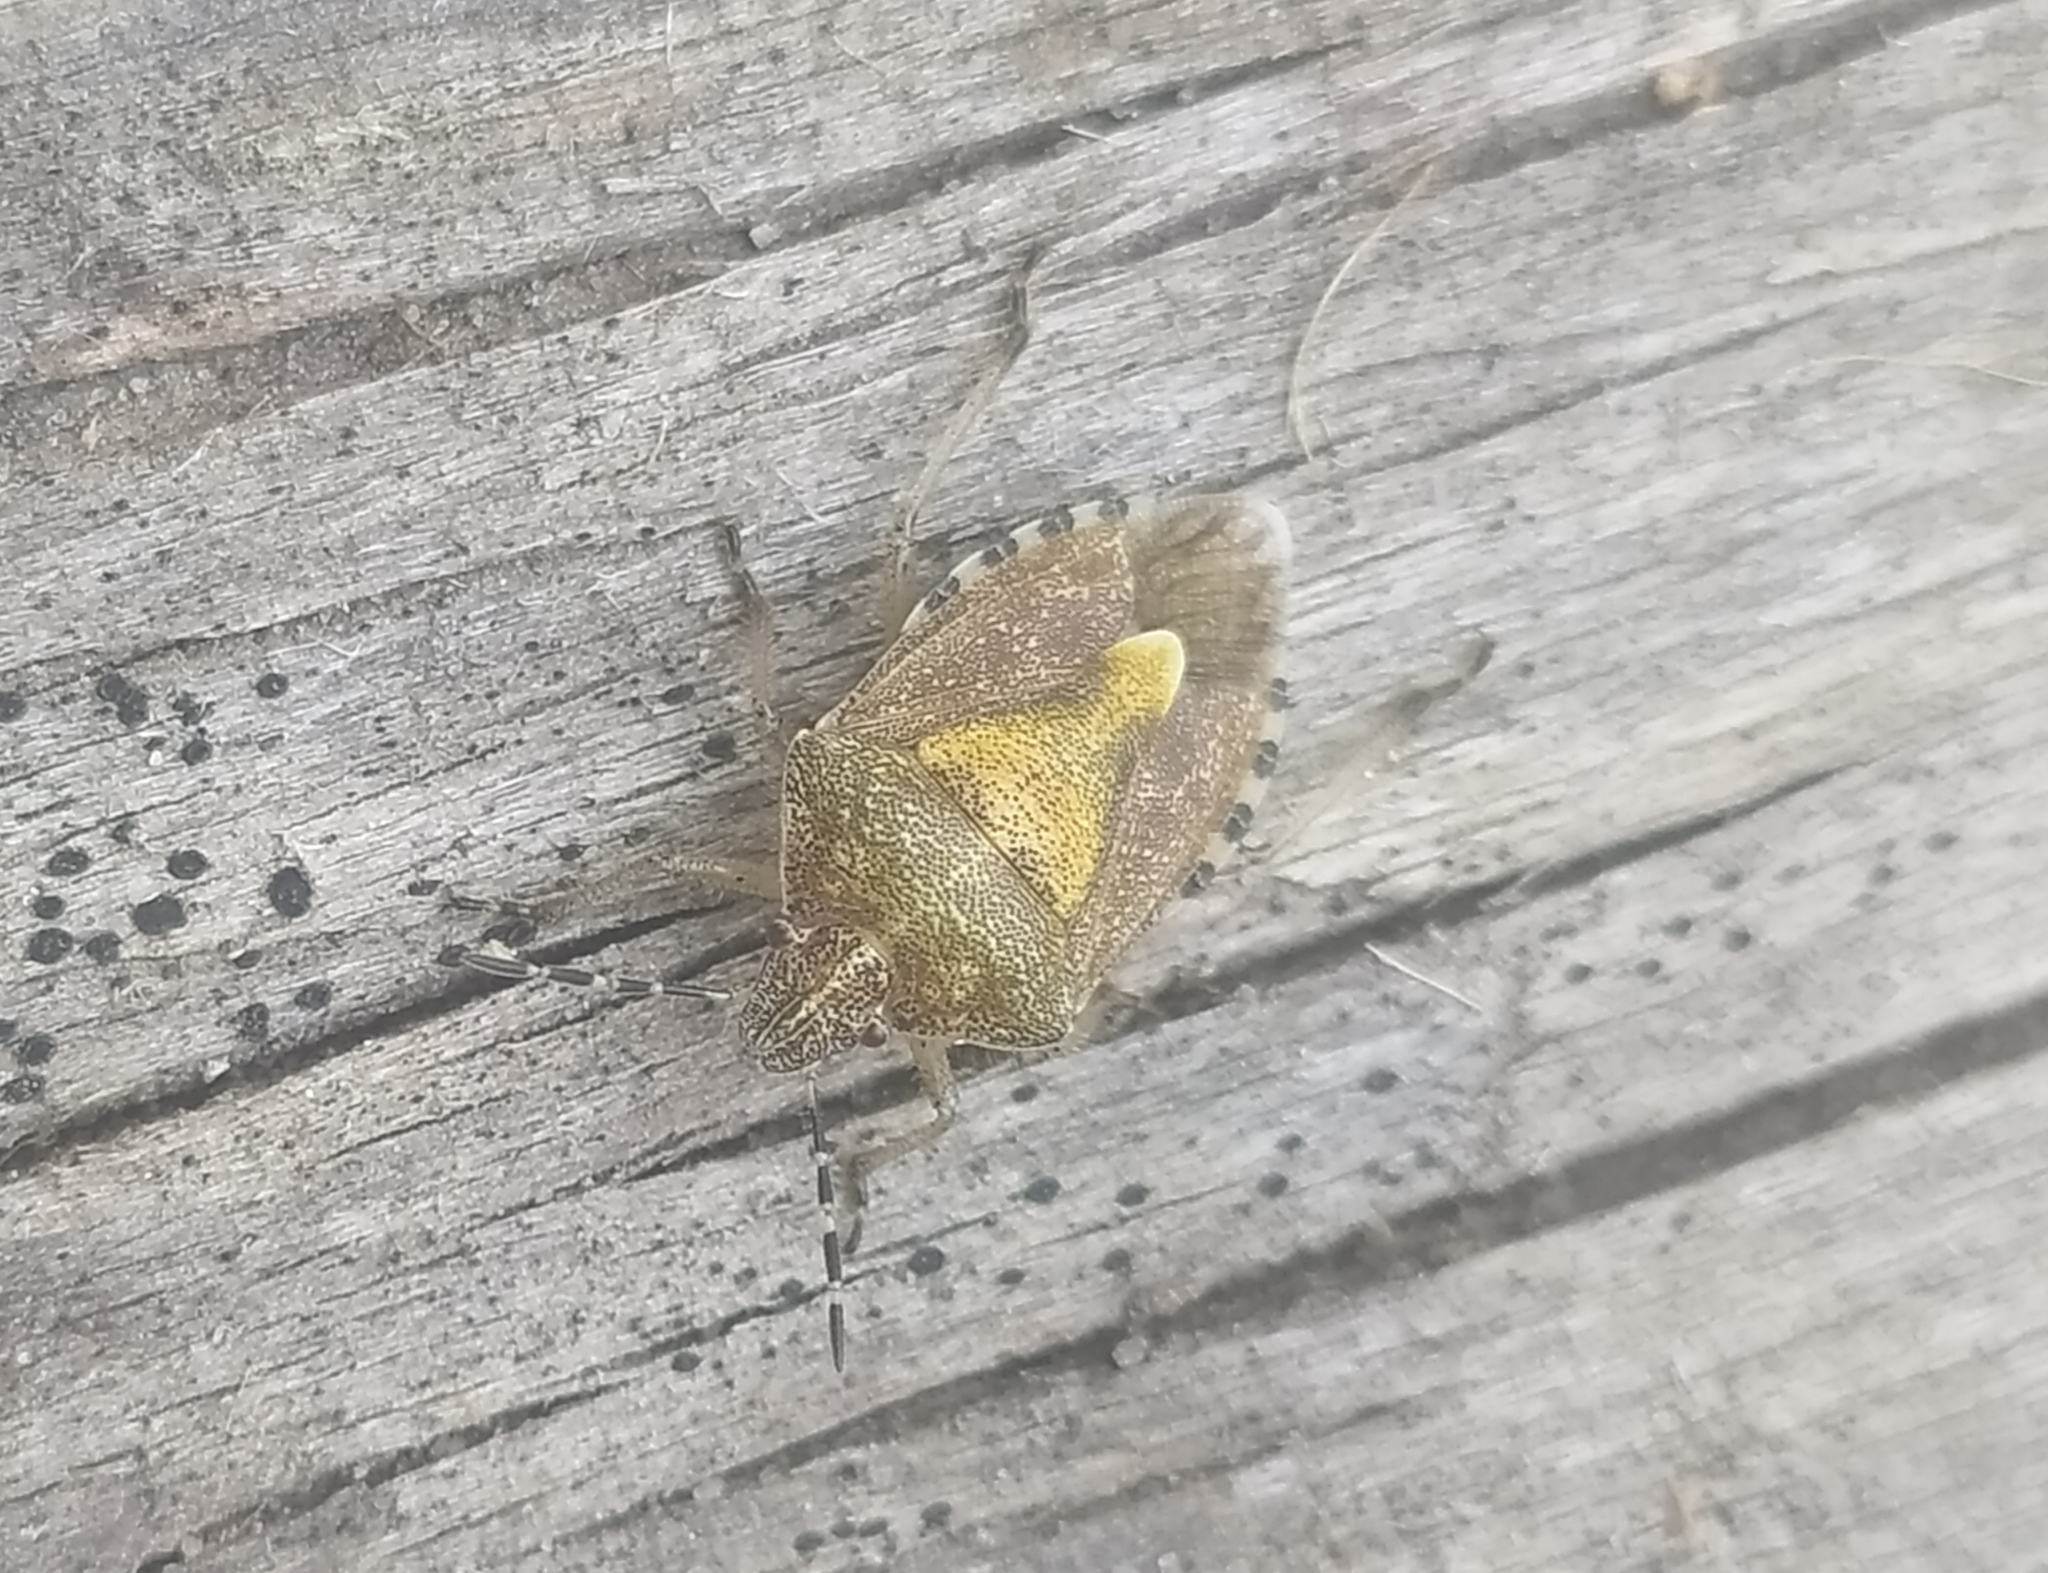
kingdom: Animalia
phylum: Arthropoda
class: Insecta
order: Hemiptera
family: Pentatomidae
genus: Dolycoris
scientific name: Dolycoris baccarum
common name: Sloe bug
